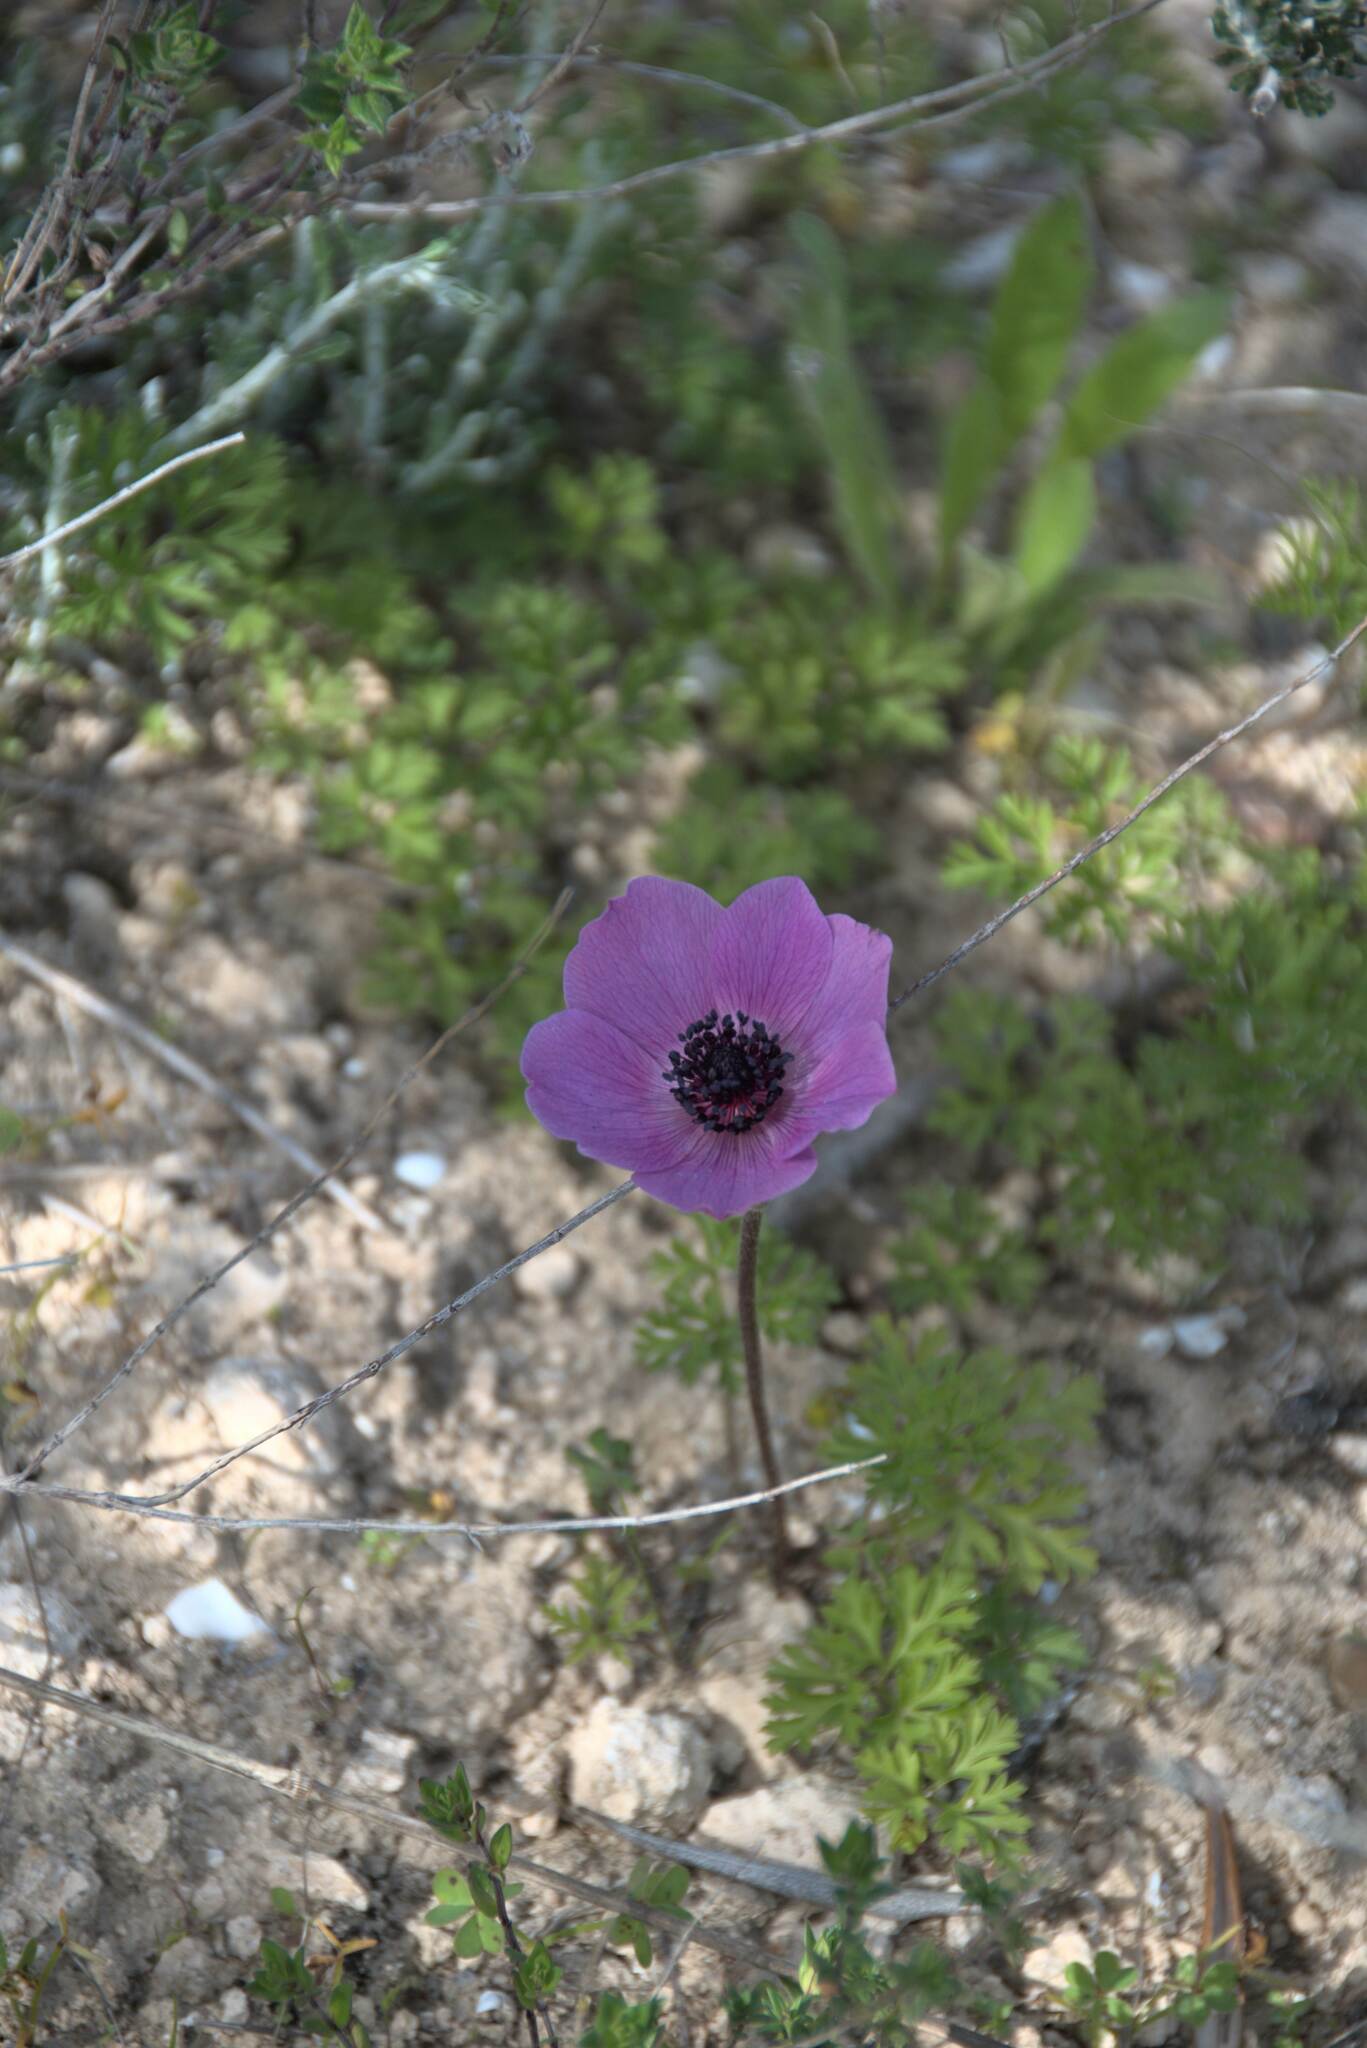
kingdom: Plantae
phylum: Tracheophyta
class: Magnoliopsida
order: Ranunculales
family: Ranunculaceae
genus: Anemone
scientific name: Anemone coronaria
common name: Poppy anemone
